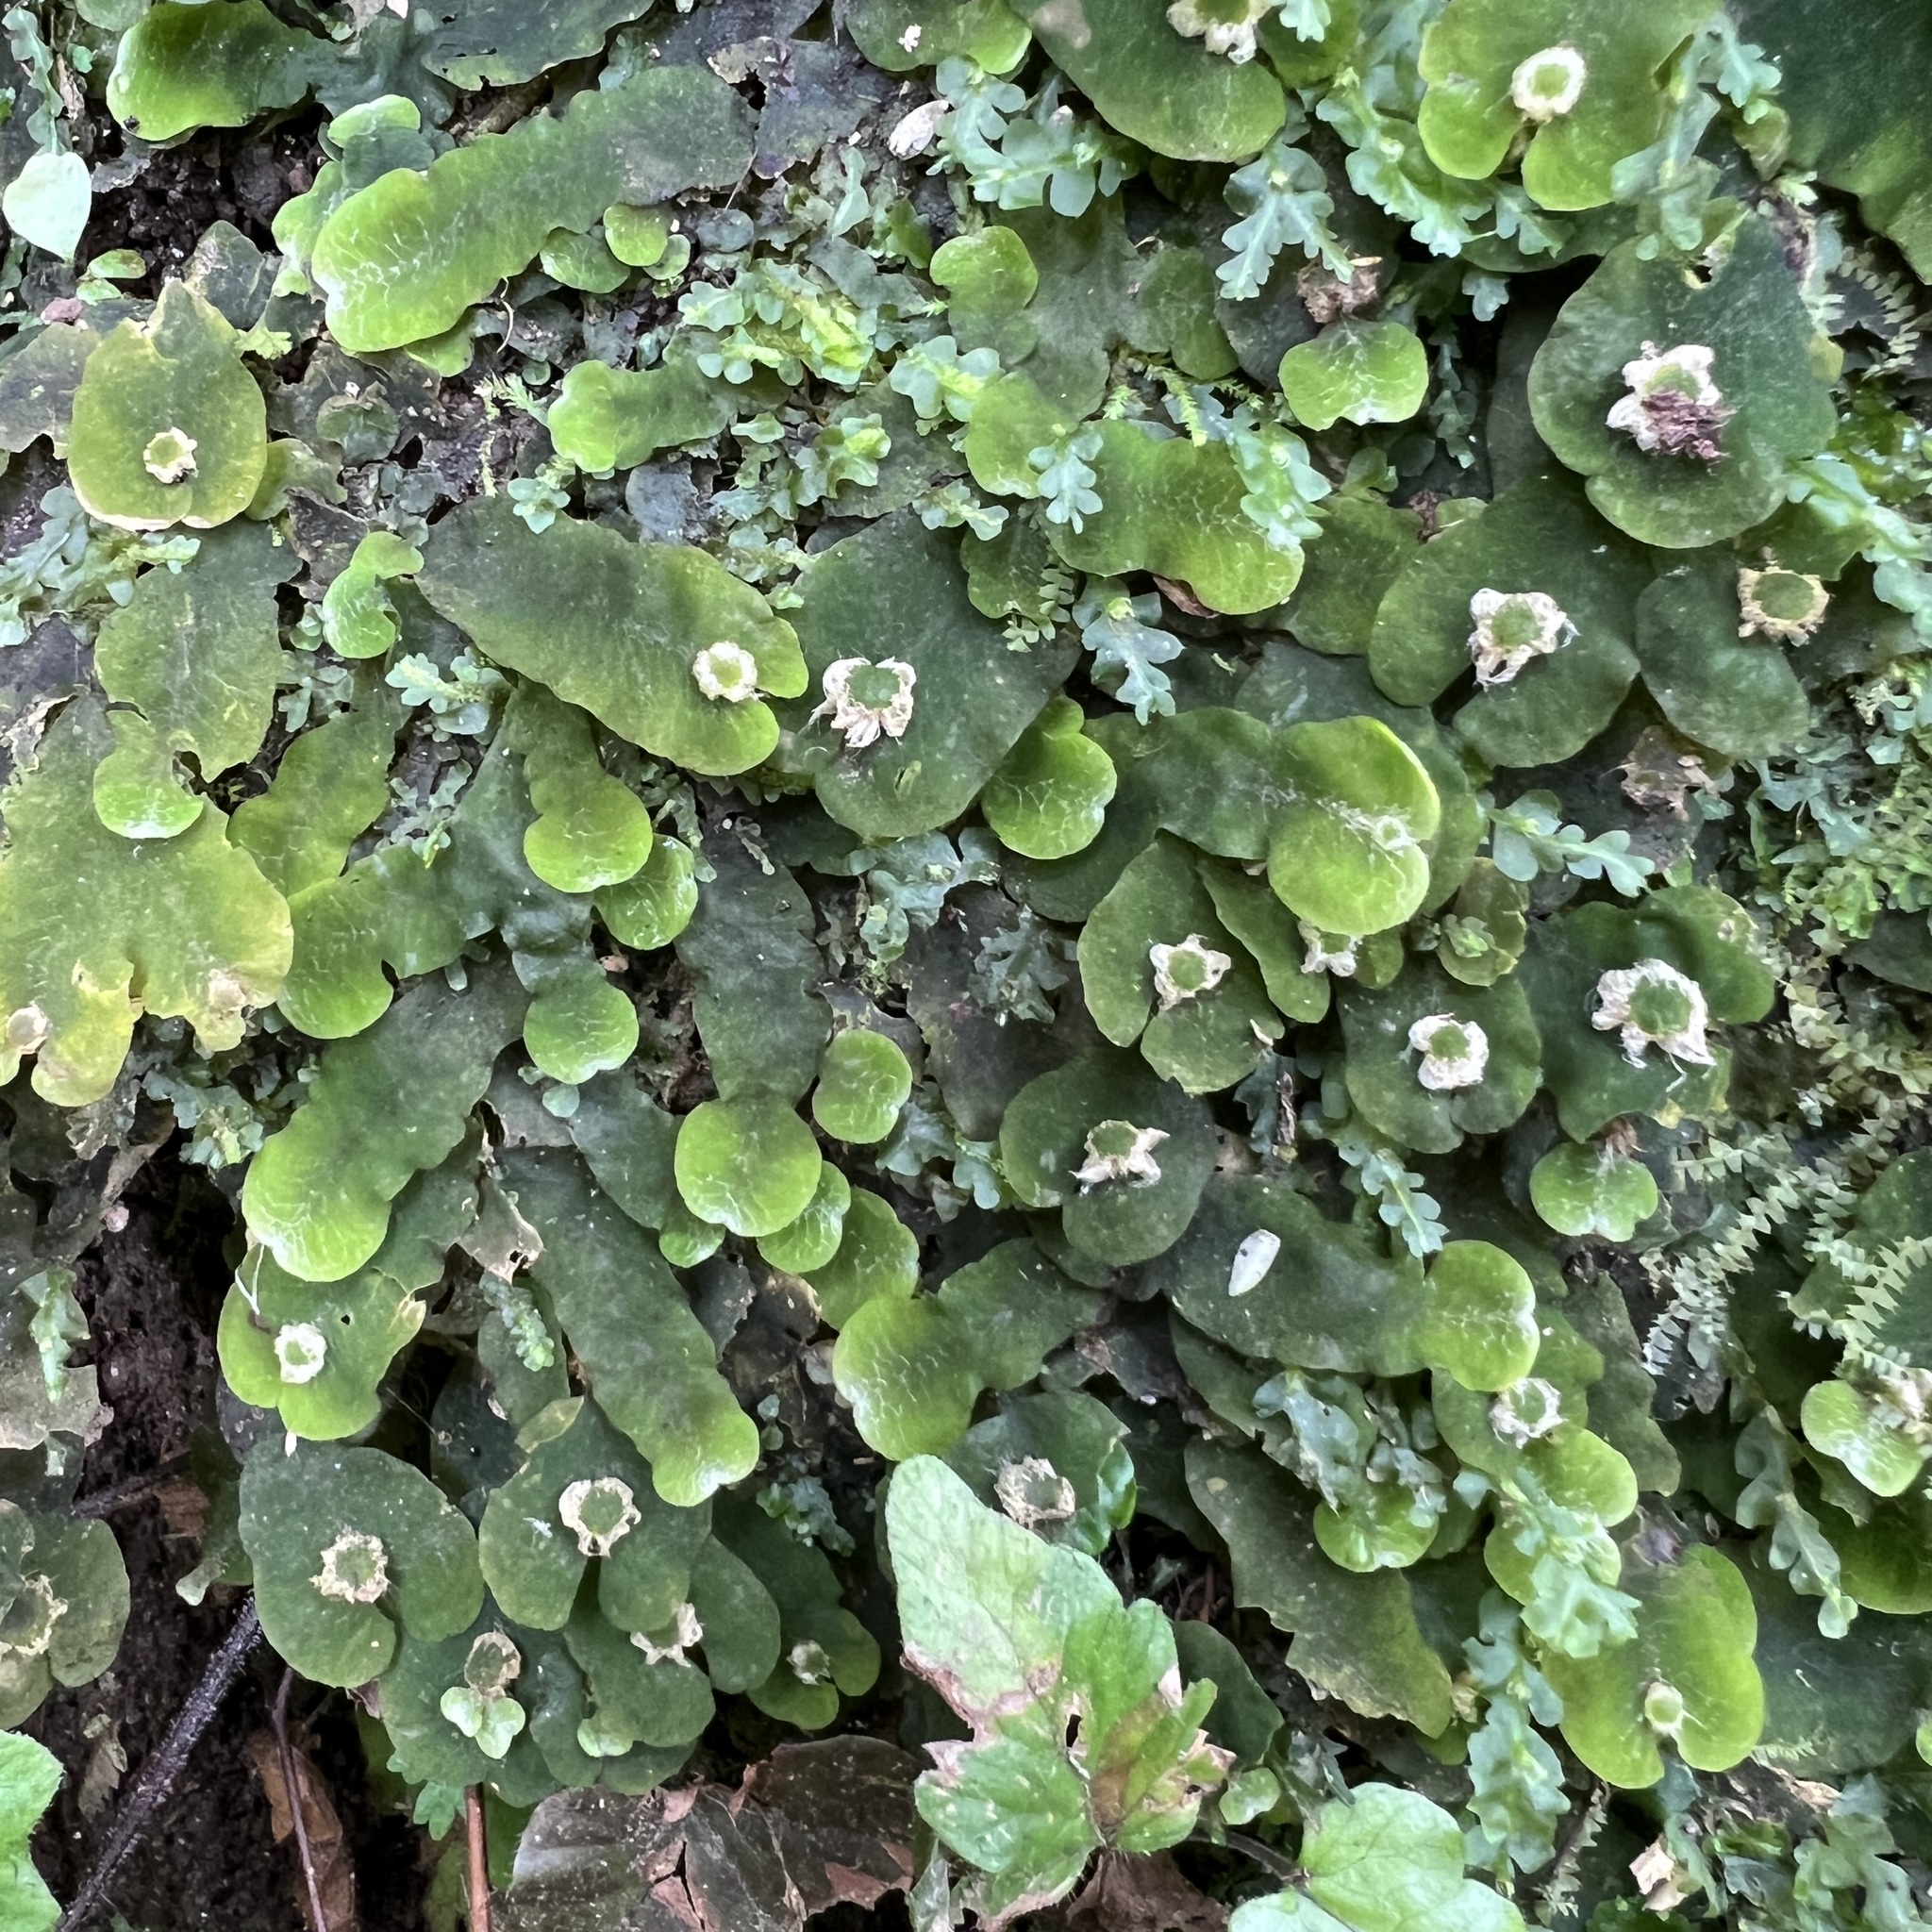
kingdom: Plantae
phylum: Marchantiophyta
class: Marchantiopsida
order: Marchantiales
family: Dumortieraceae
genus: Dumortiera
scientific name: Dumortiera hirsuta
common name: Dumortier's liverwort
